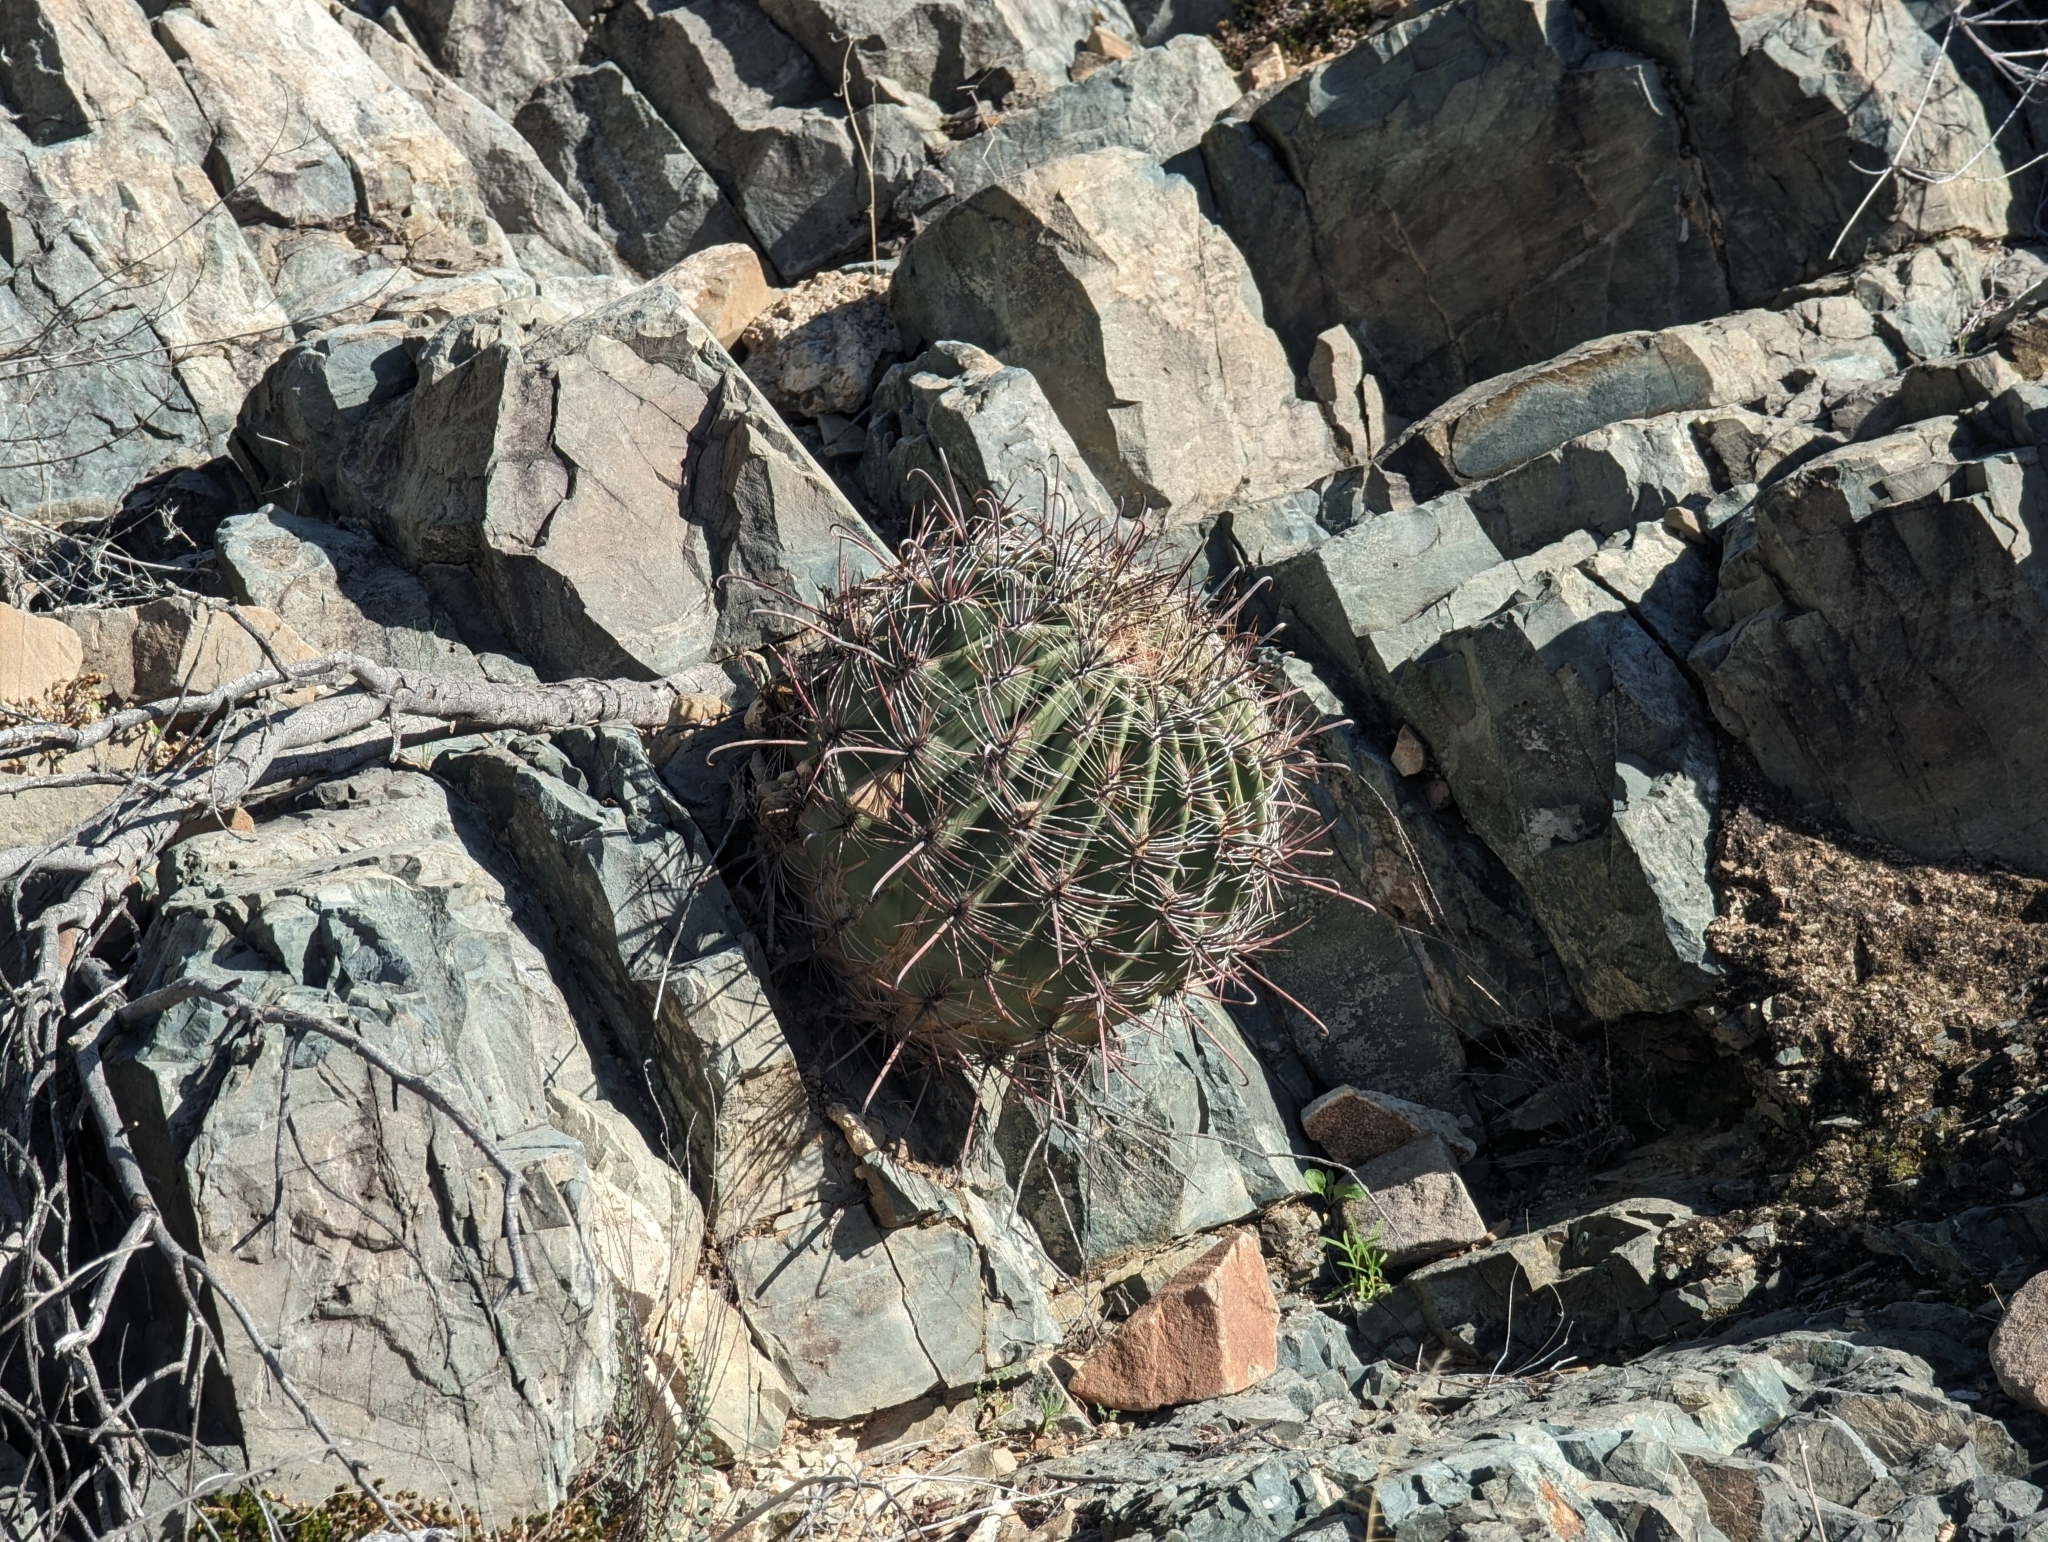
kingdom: Plantae
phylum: Tracheophyta
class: Magnoliopsida
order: Caryophyllales
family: Cactaceae
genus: Ferocactus
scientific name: Ferocactus wislizeni
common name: Candy barrel cactus
